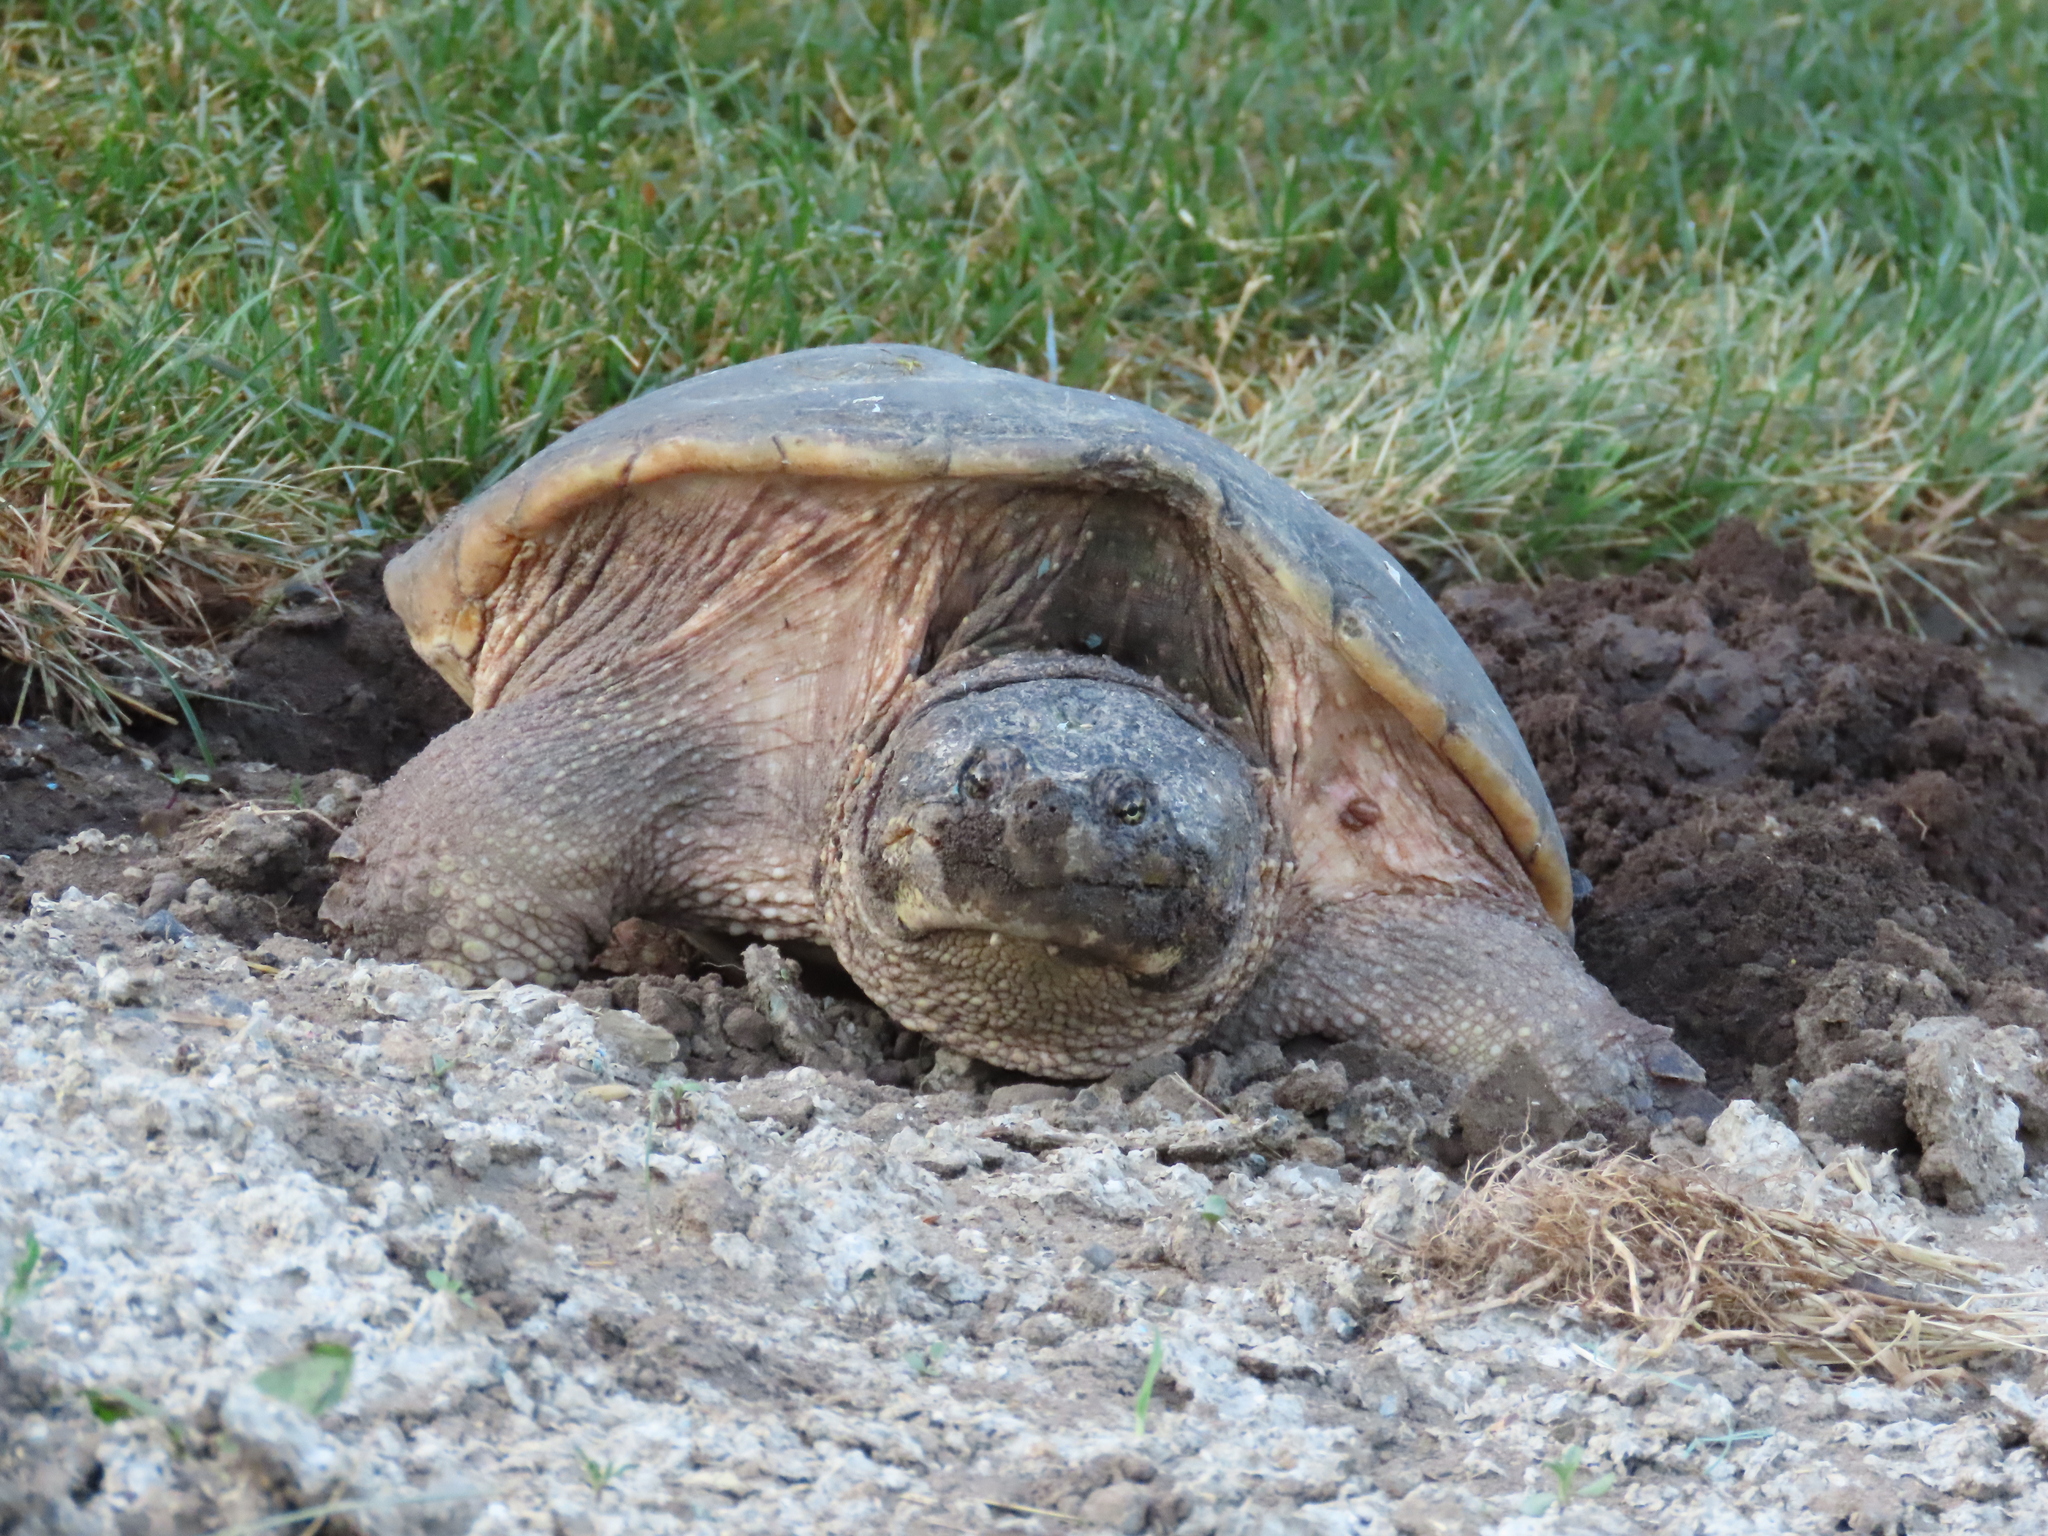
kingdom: Animalia
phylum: Chordata
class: Testudines
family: Chelydridae
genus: Chelydra
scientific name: Chelydra serpentina
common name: Common snapping turtle
